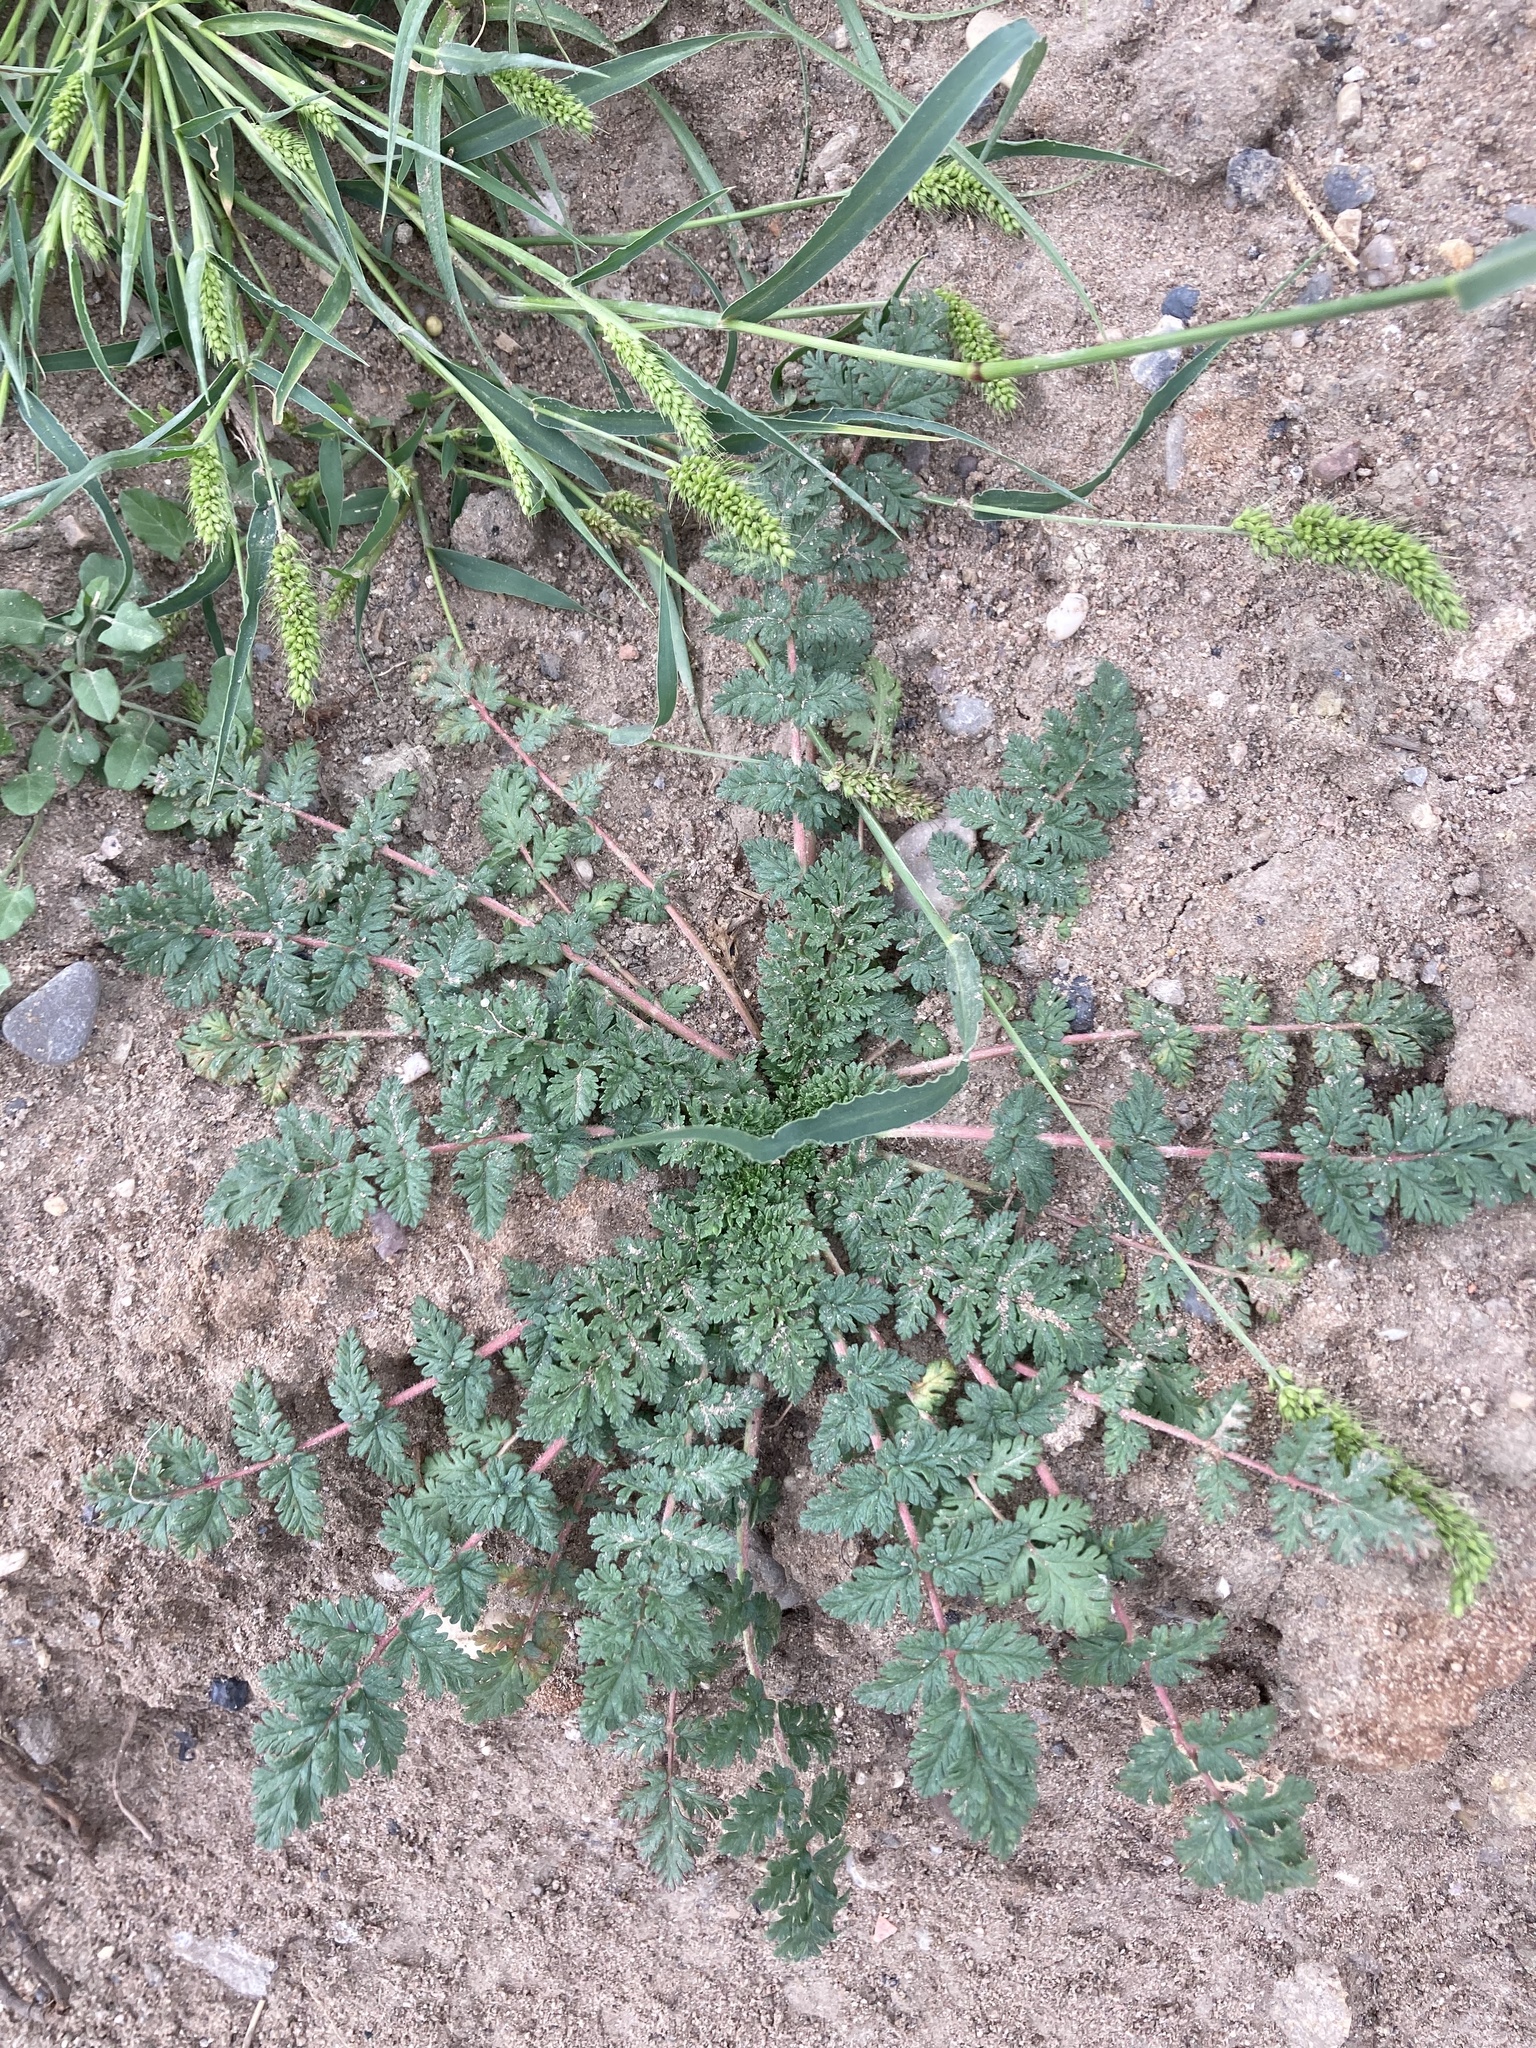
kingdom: Plantae
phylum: Tracheophyta
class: Magnoliopsida
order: Geraniales
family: Geraniaceae
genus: Erodium
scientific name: Erodium cicutarium
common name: Common stork's-bill
